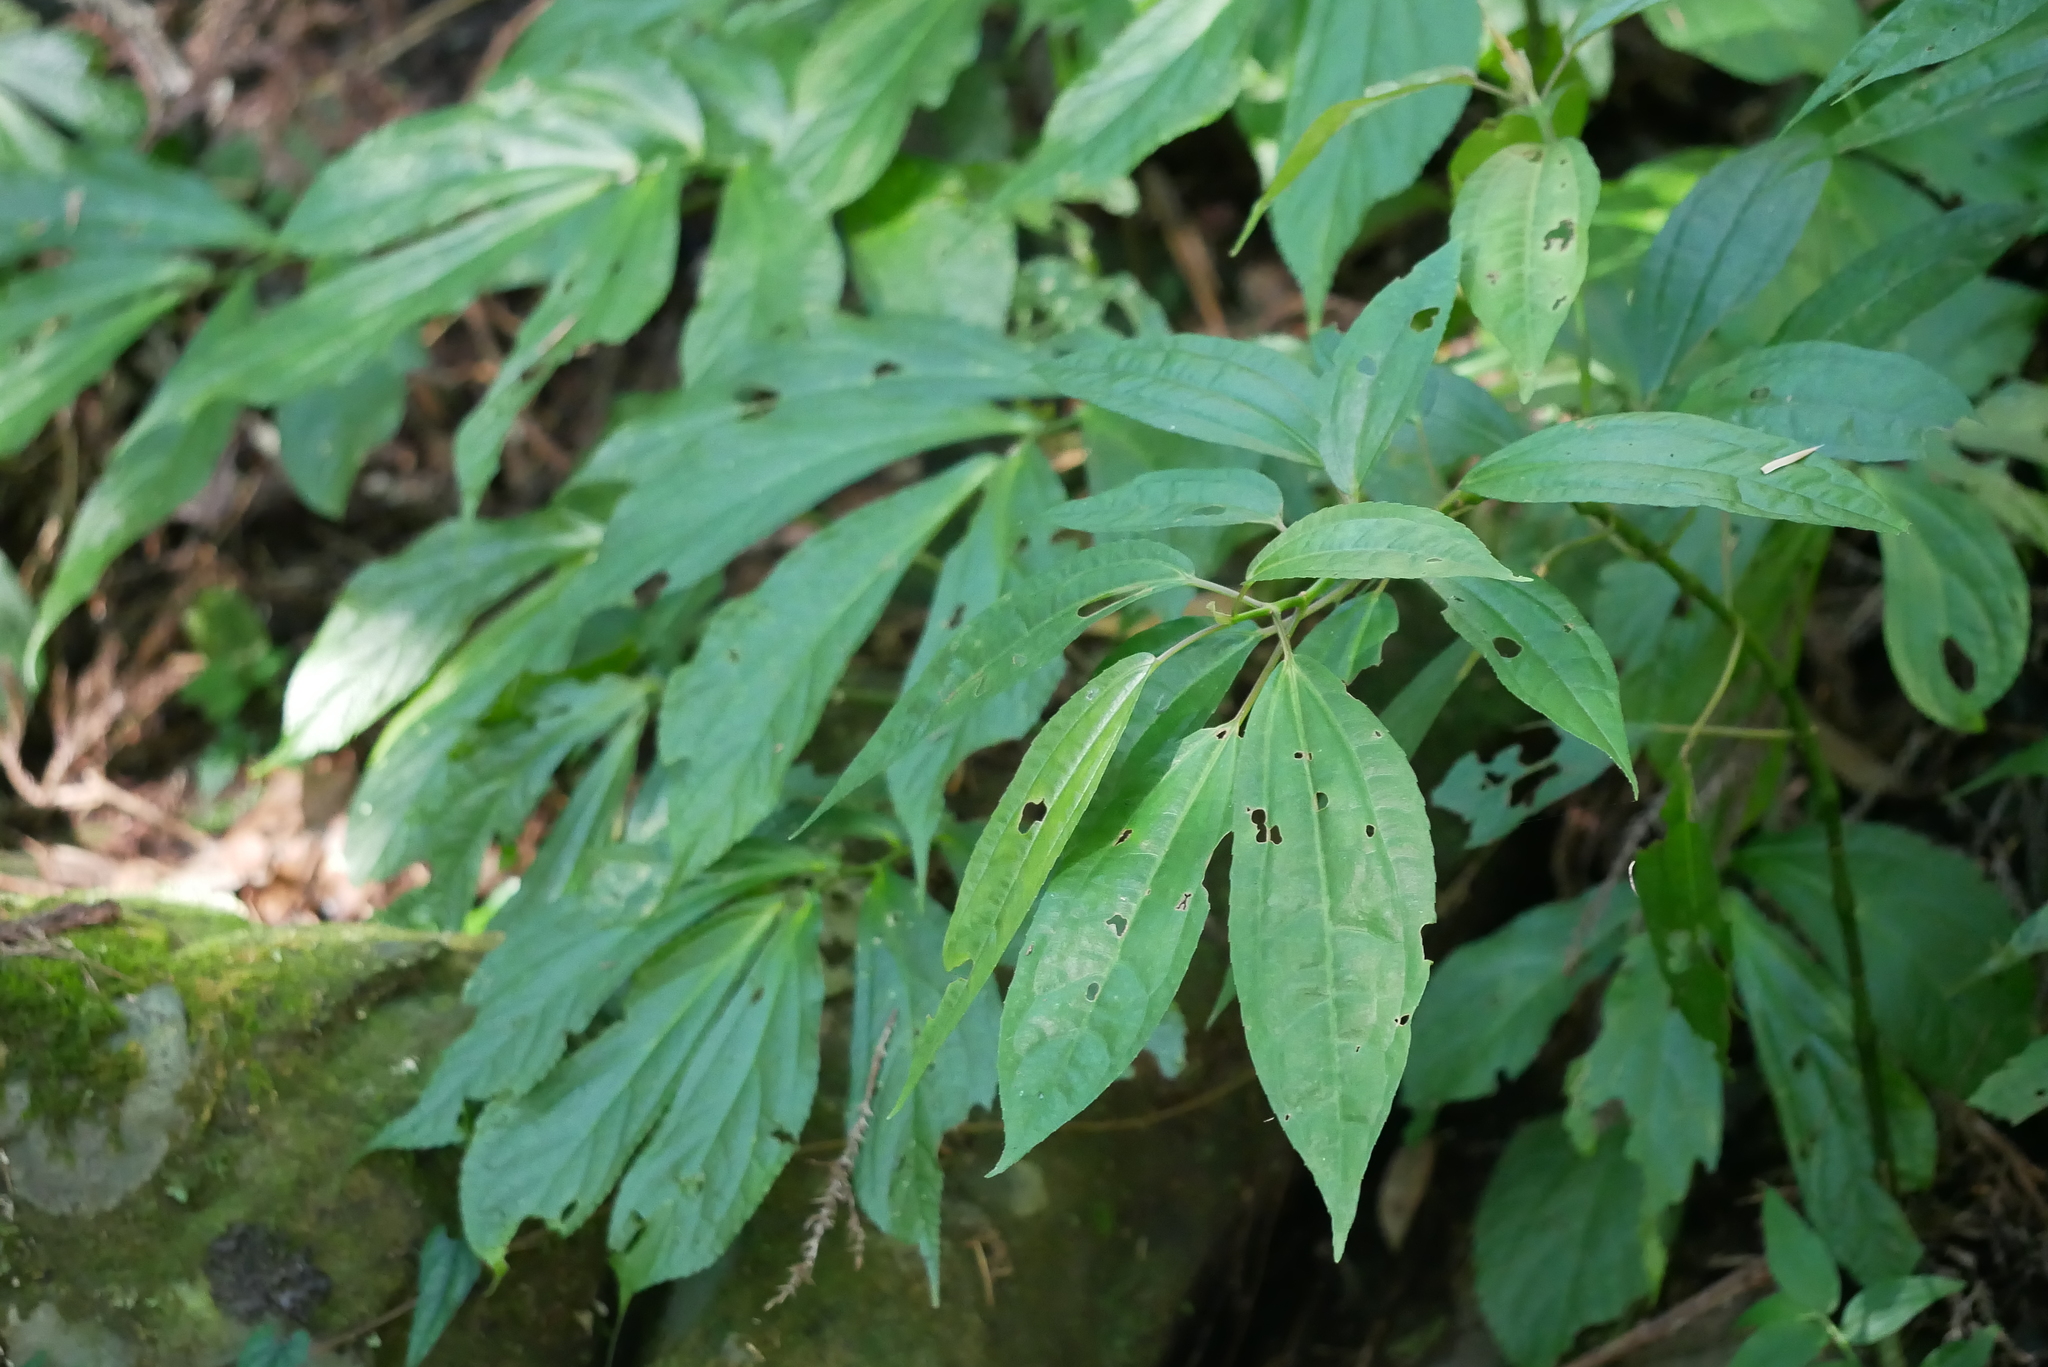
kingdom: Plantae
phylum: Tracheophyta
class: Magnoliopsida
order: Rosales
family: Urticaceae
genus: Pilea
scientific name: Pilea rotundinucula
